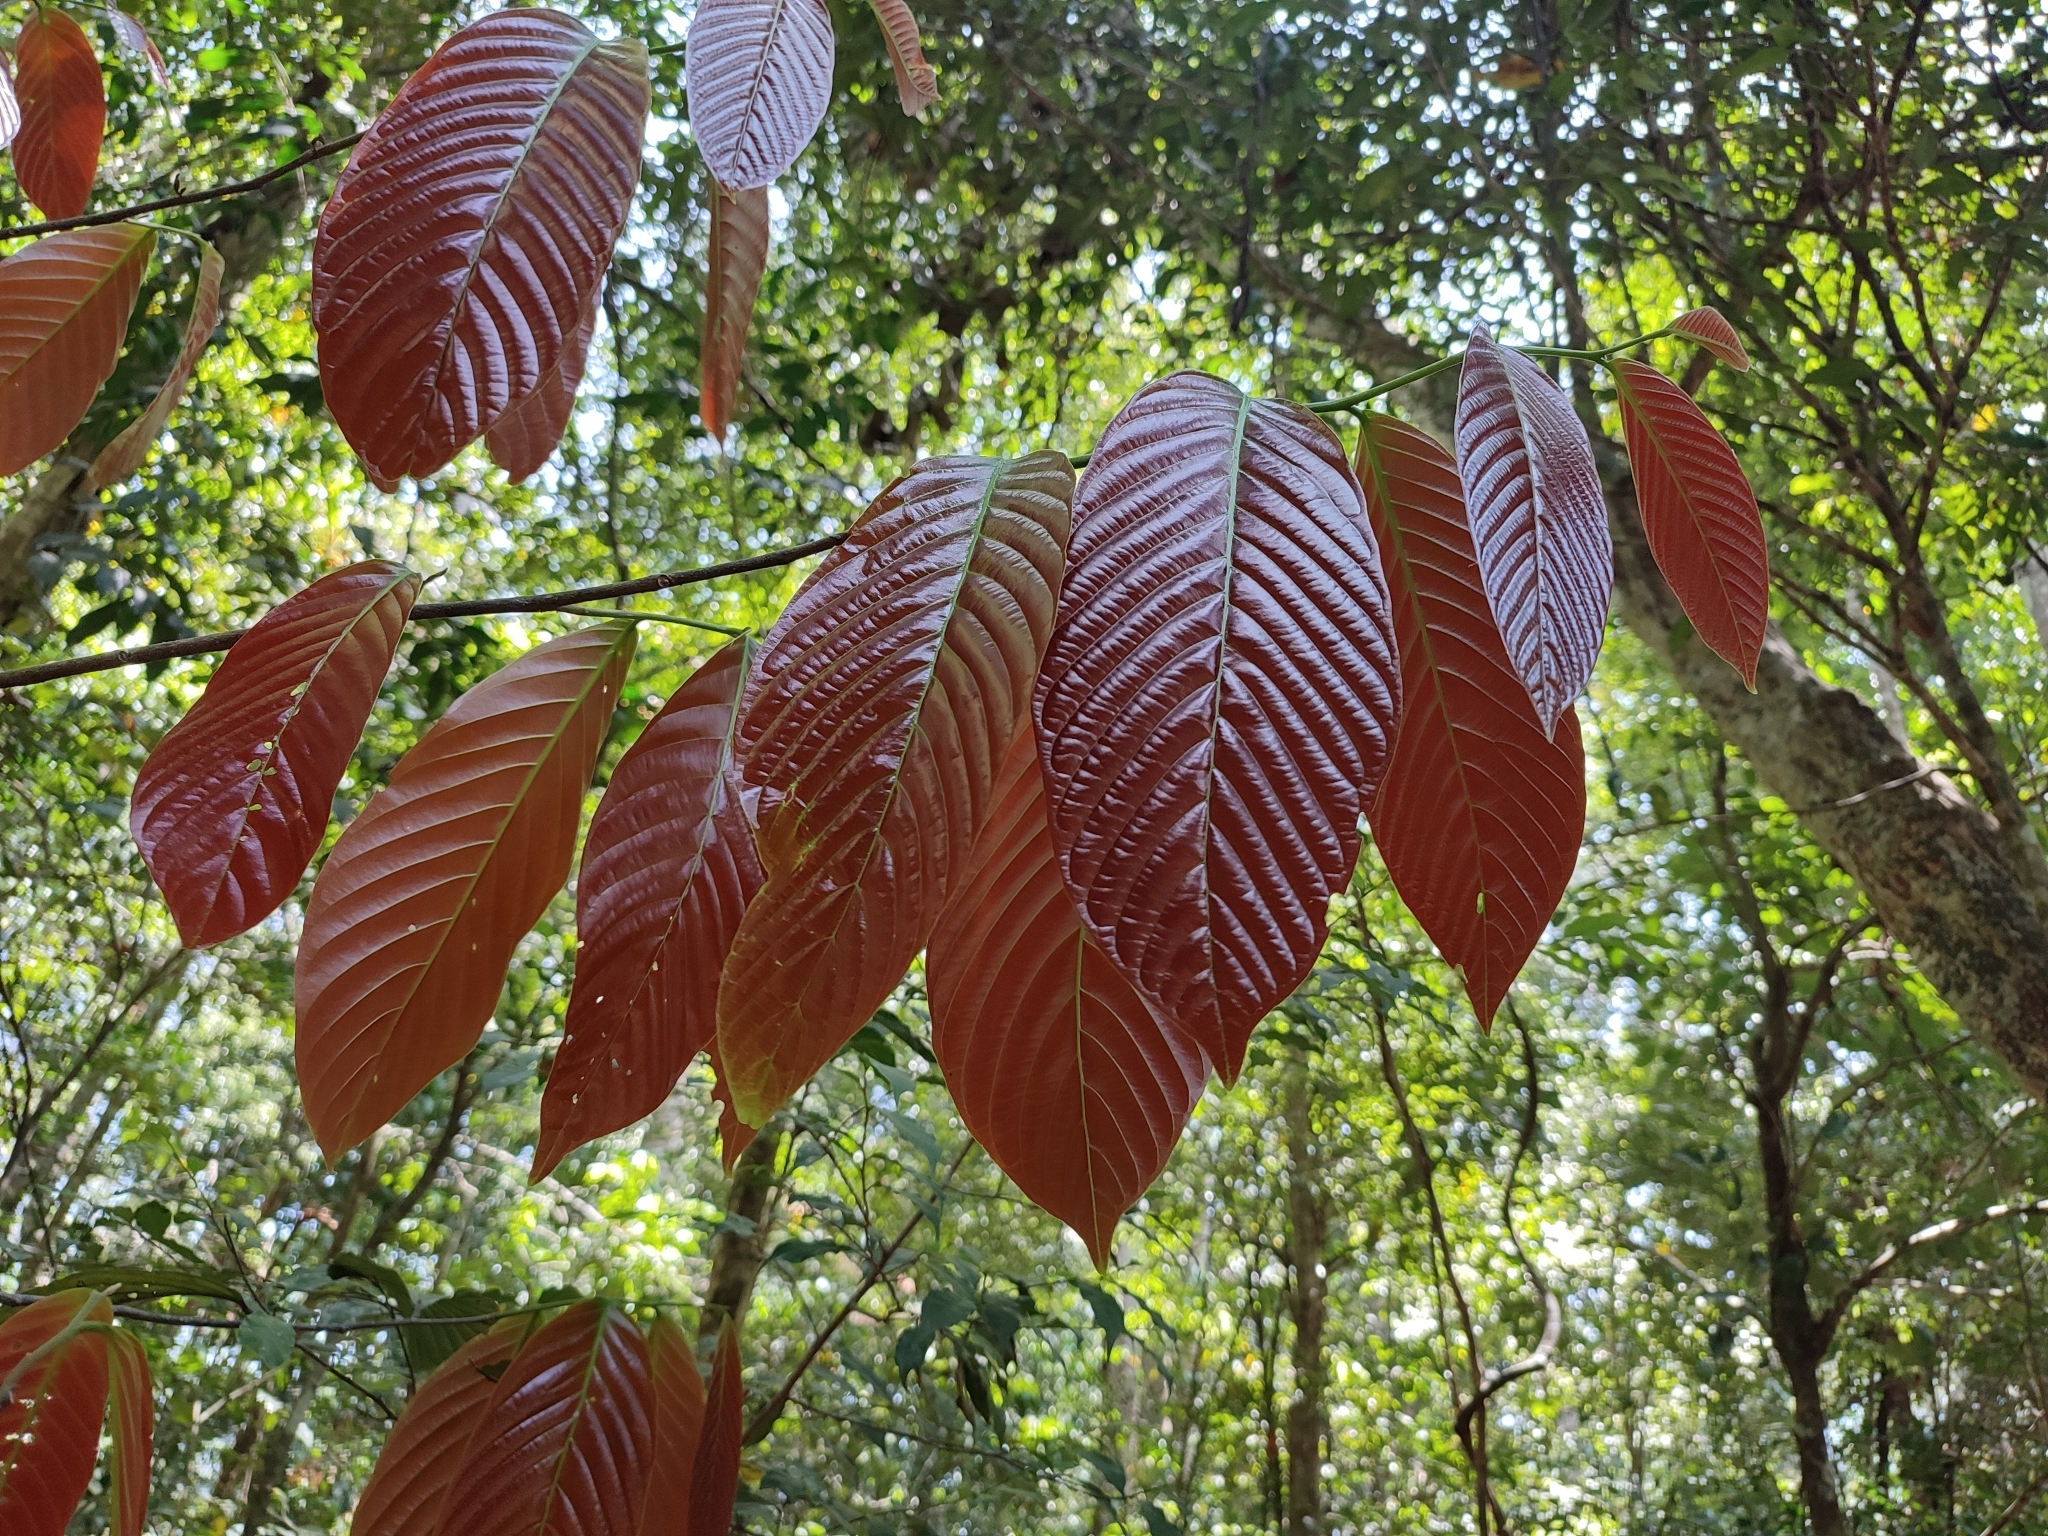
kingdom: Plantae
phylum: Tracheophyta
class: Magnoliopsida
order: Magnoliales
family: Annonaceae
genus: Polyalthia
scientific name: Polyalthia fragrans
